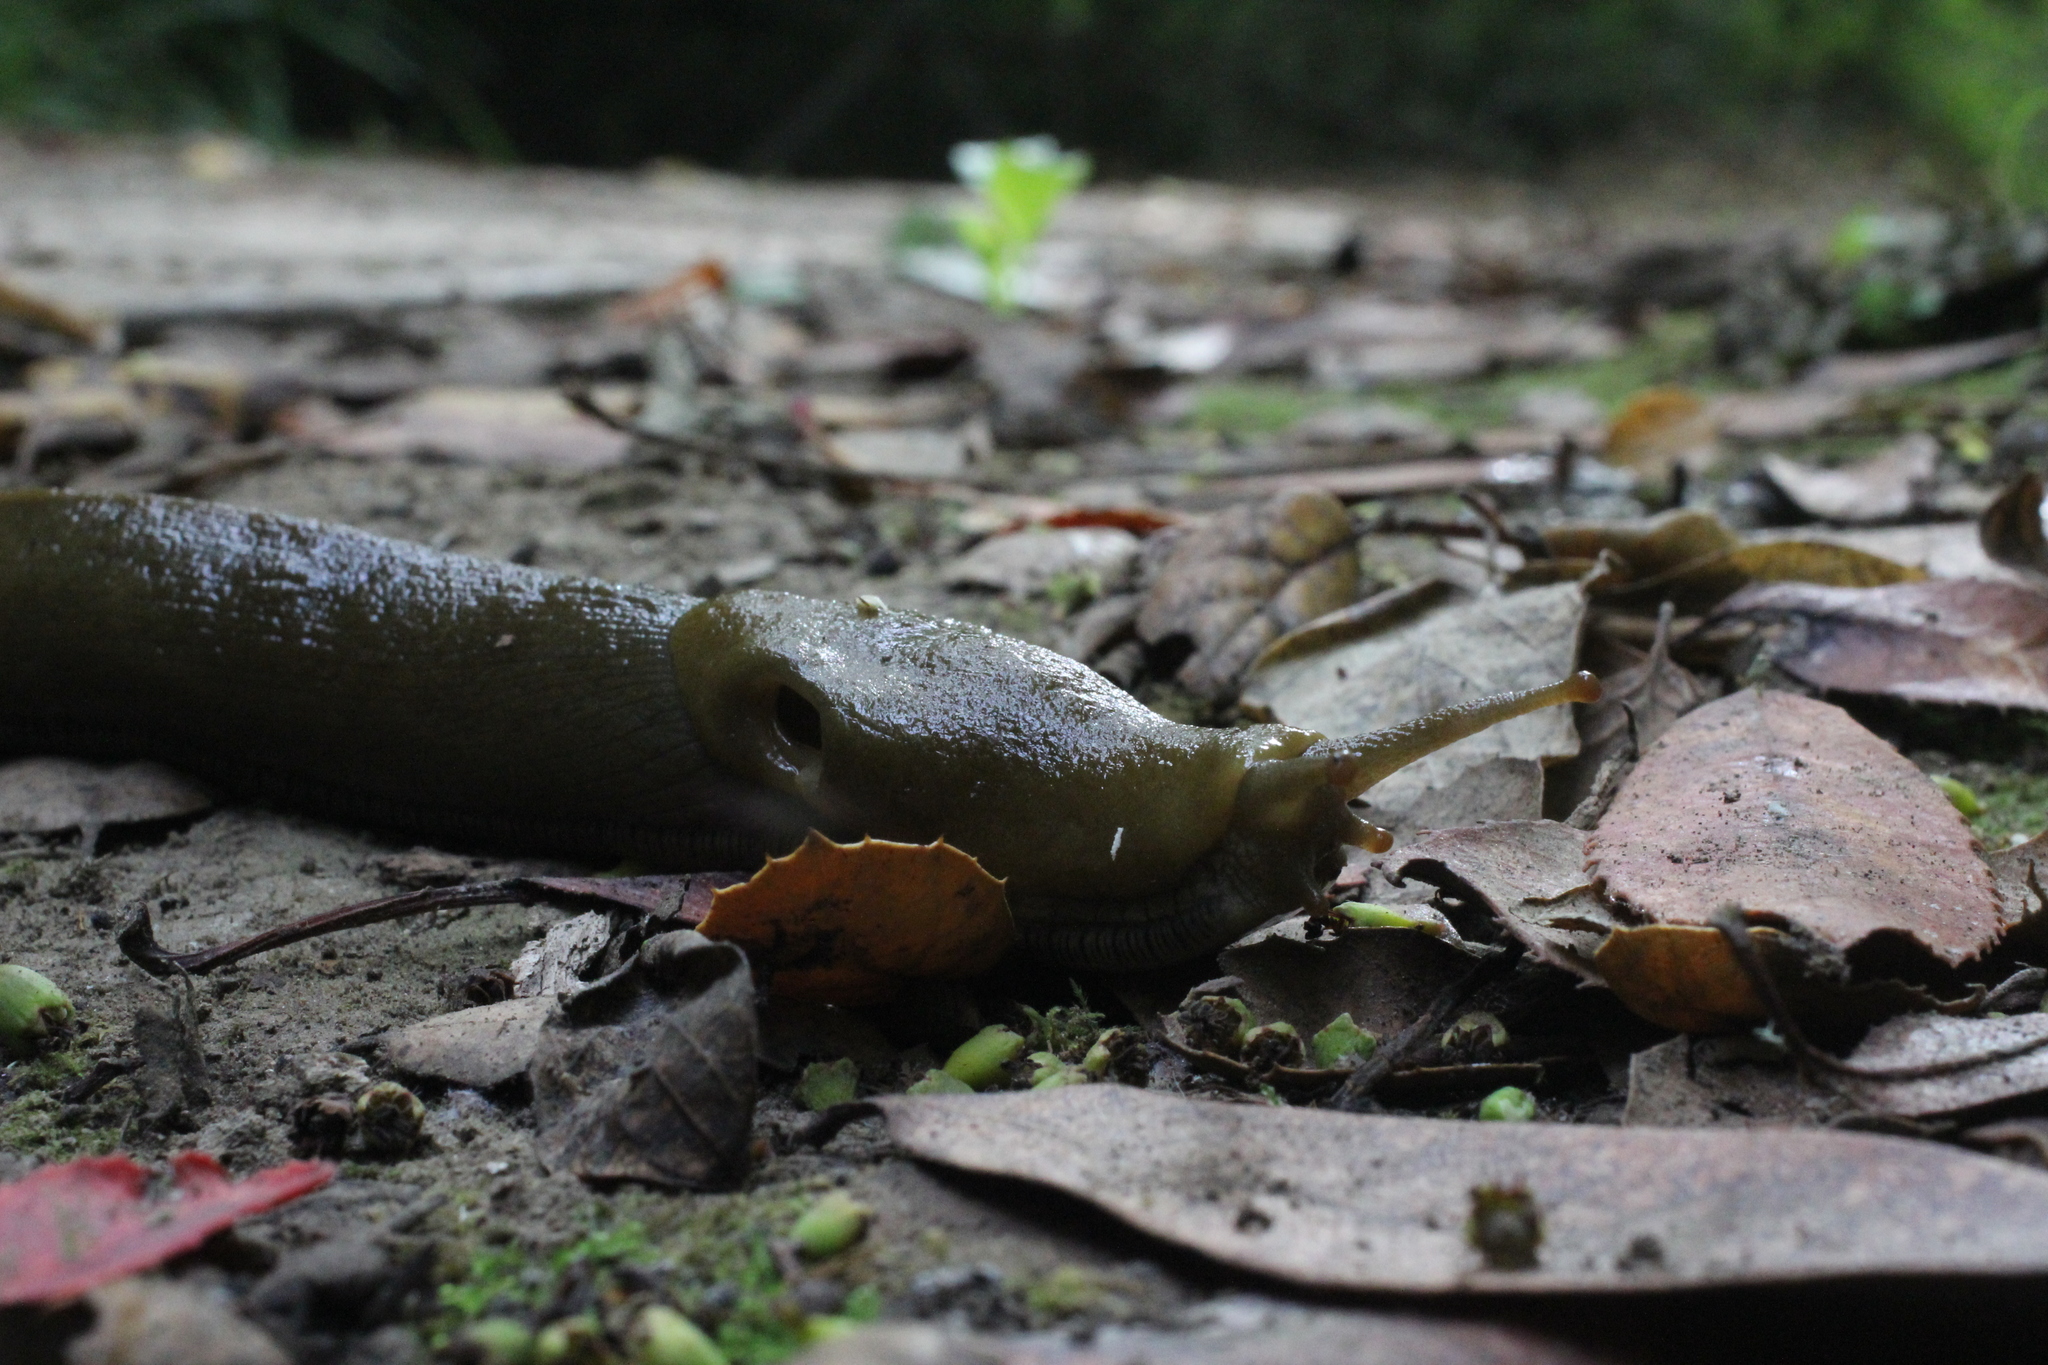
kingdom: Animalia
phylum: Mollusca
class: Gastropoda
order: Stylommatophora
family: Ariolimacidae
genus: Ariolimax
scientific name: Ariolimax buttoni
